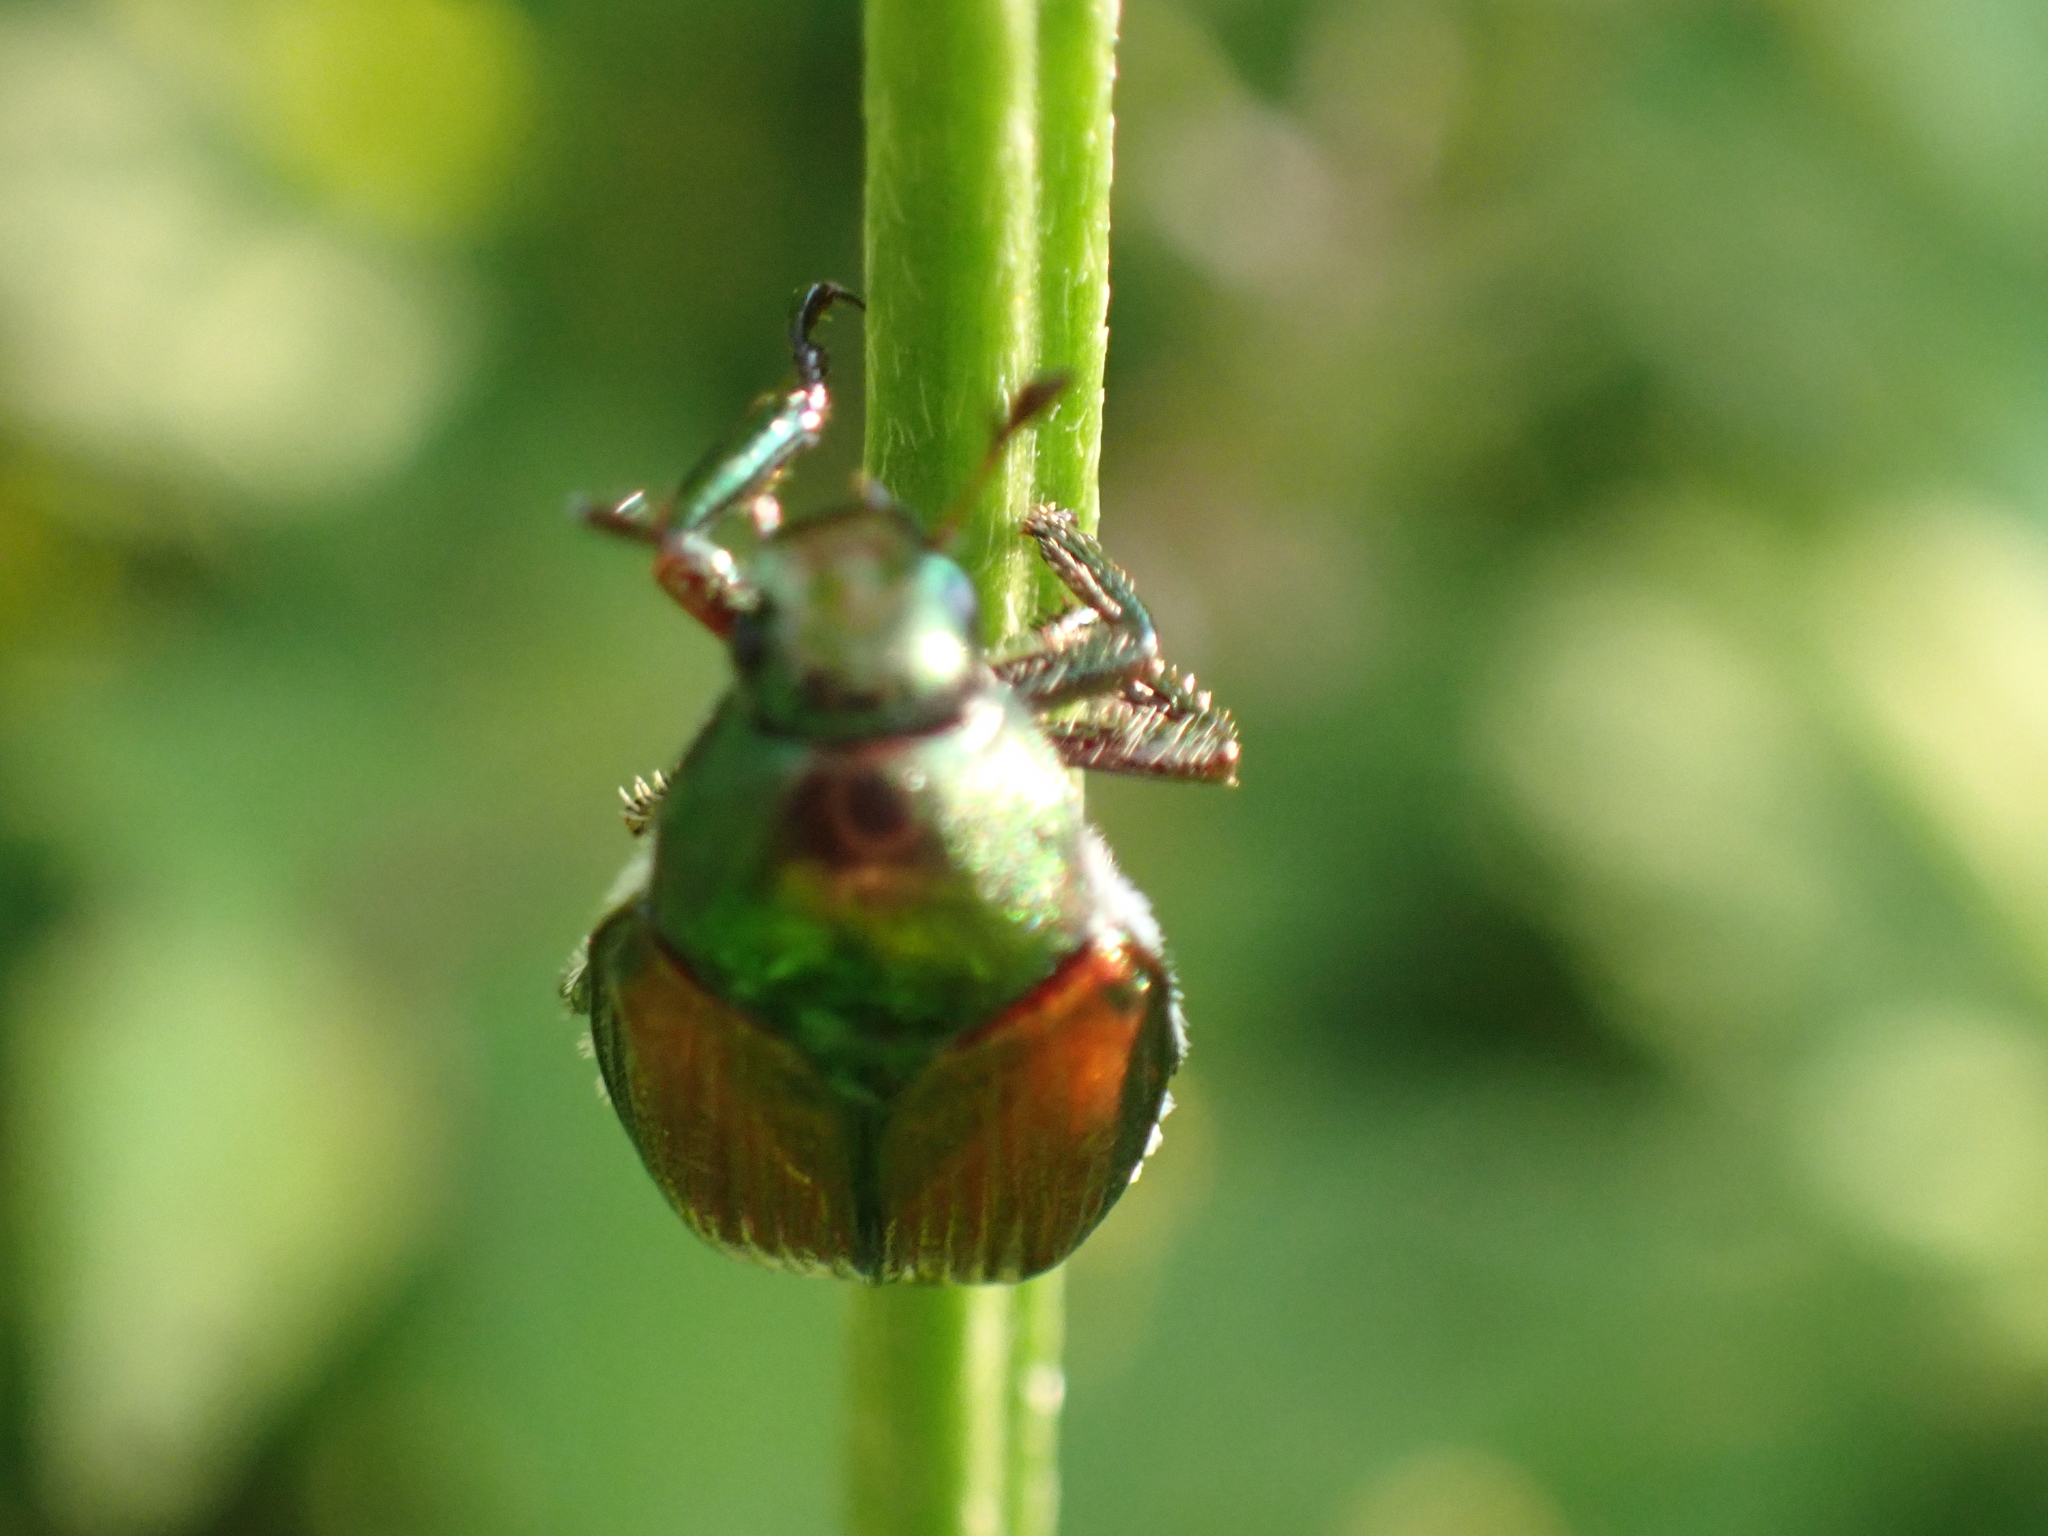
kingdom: Animalia
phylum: Arthropoda
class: Insecta
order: Coleoptera
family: Scarabaeidae
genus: Popillia
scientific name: Popillia japonica
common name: Japanese beetle
